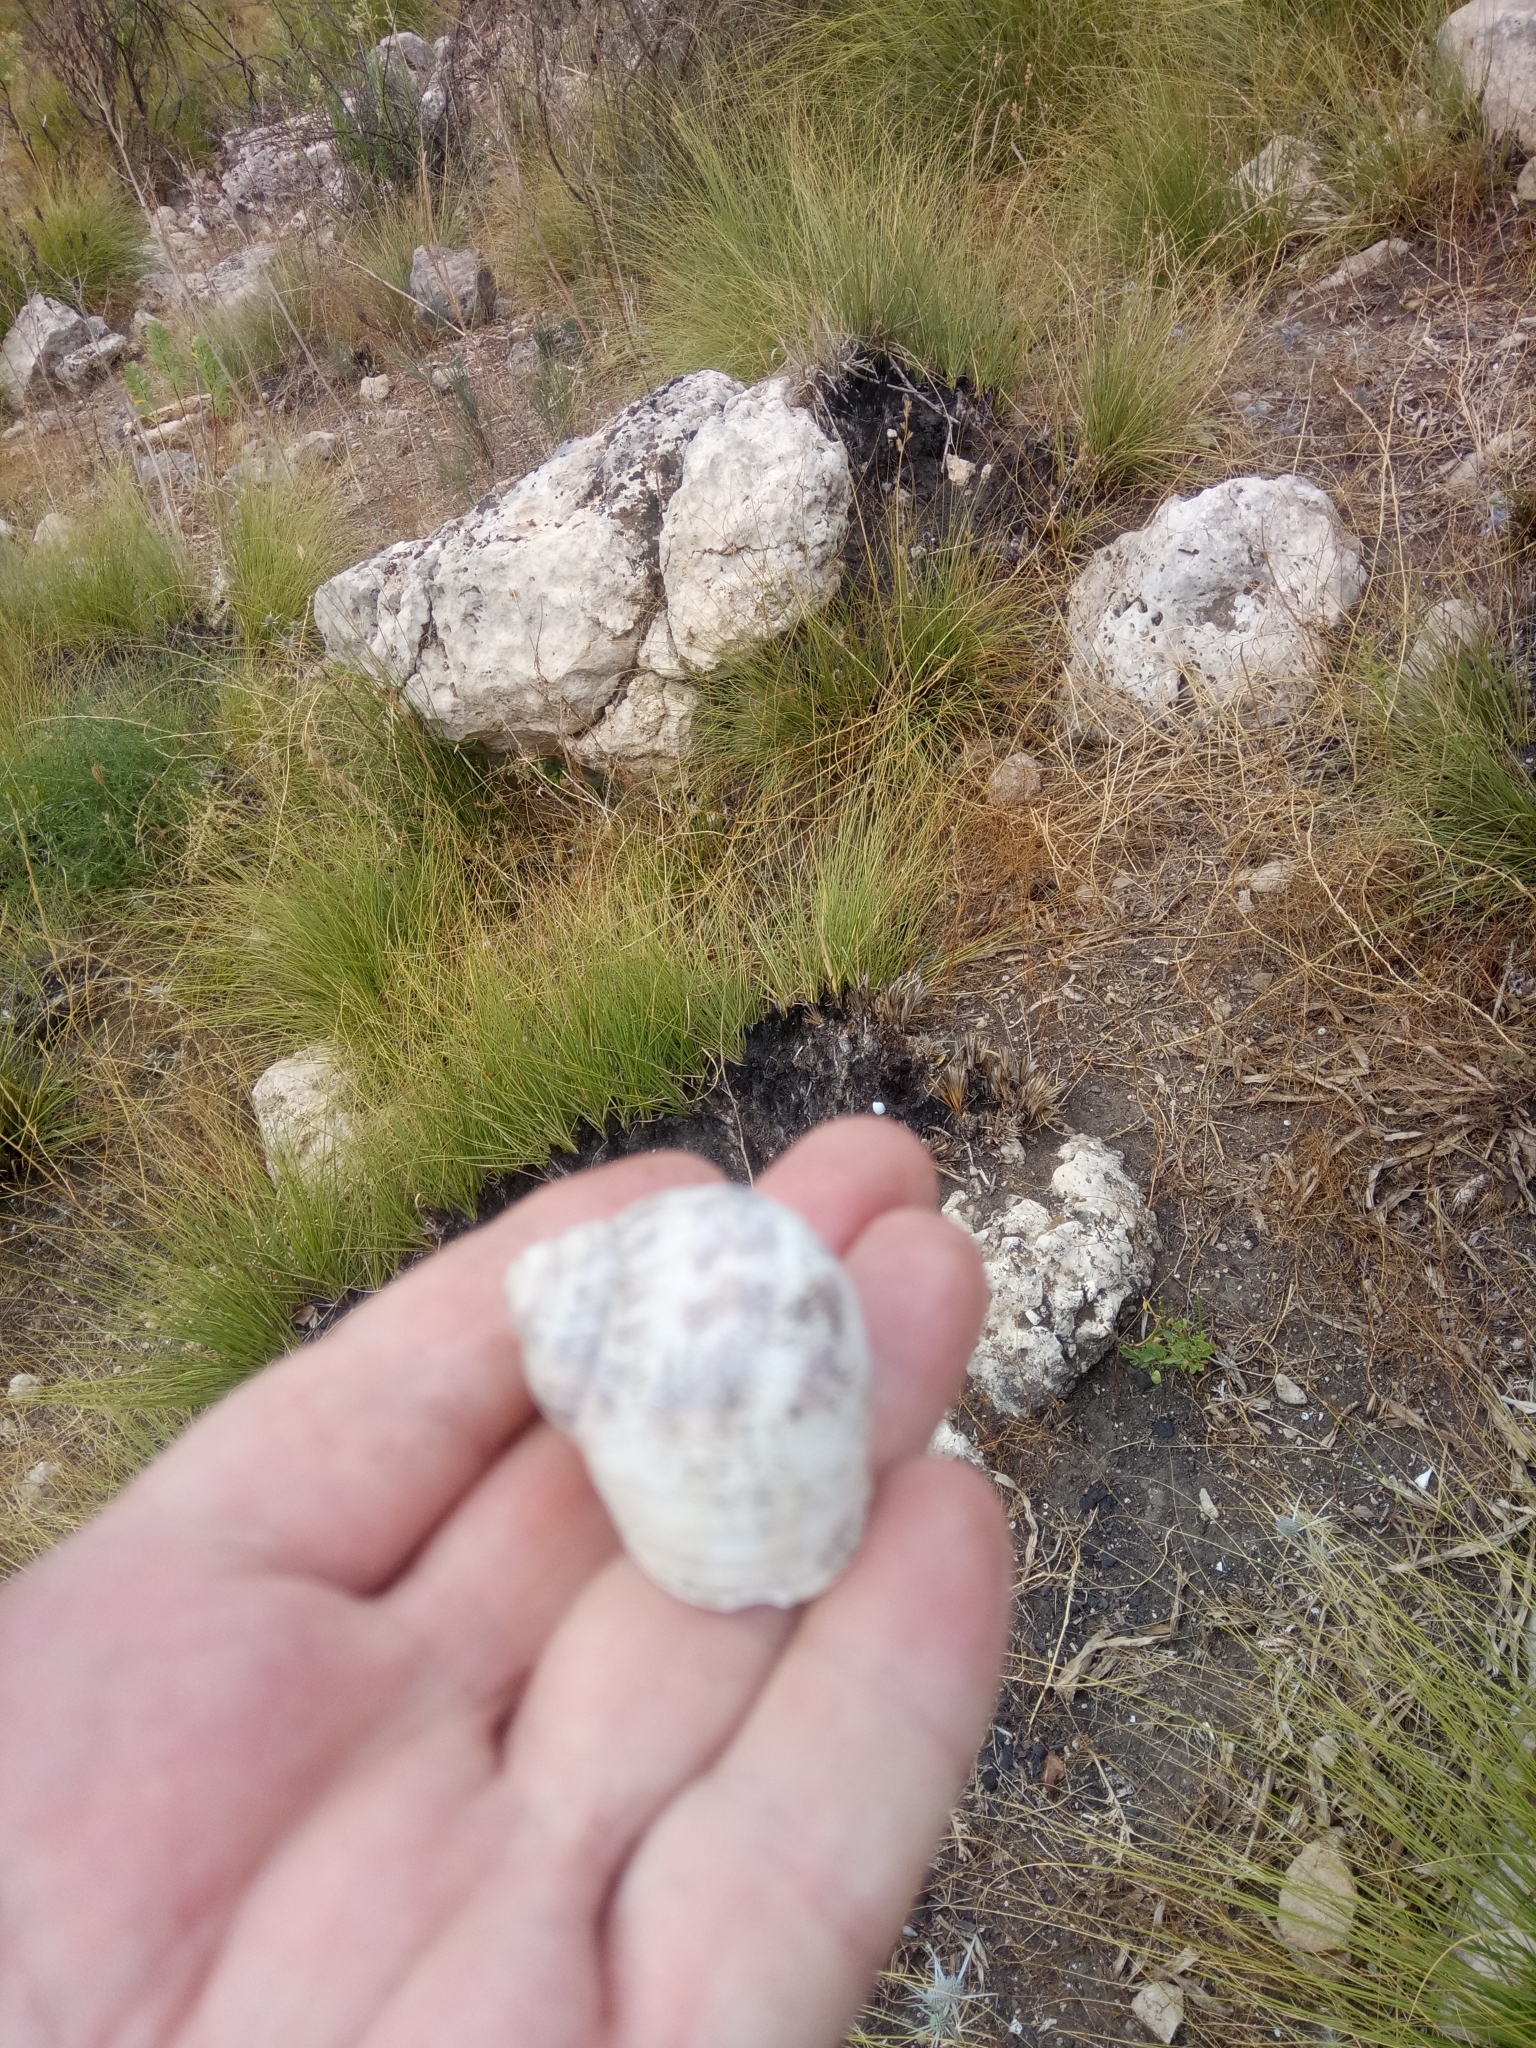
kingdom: Animalia
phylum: Mollusca
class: Gastropoda
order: Stylommatophora
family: Helicidae
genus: Cornu
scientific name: Cornu aspersum
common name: Brown garden snail
